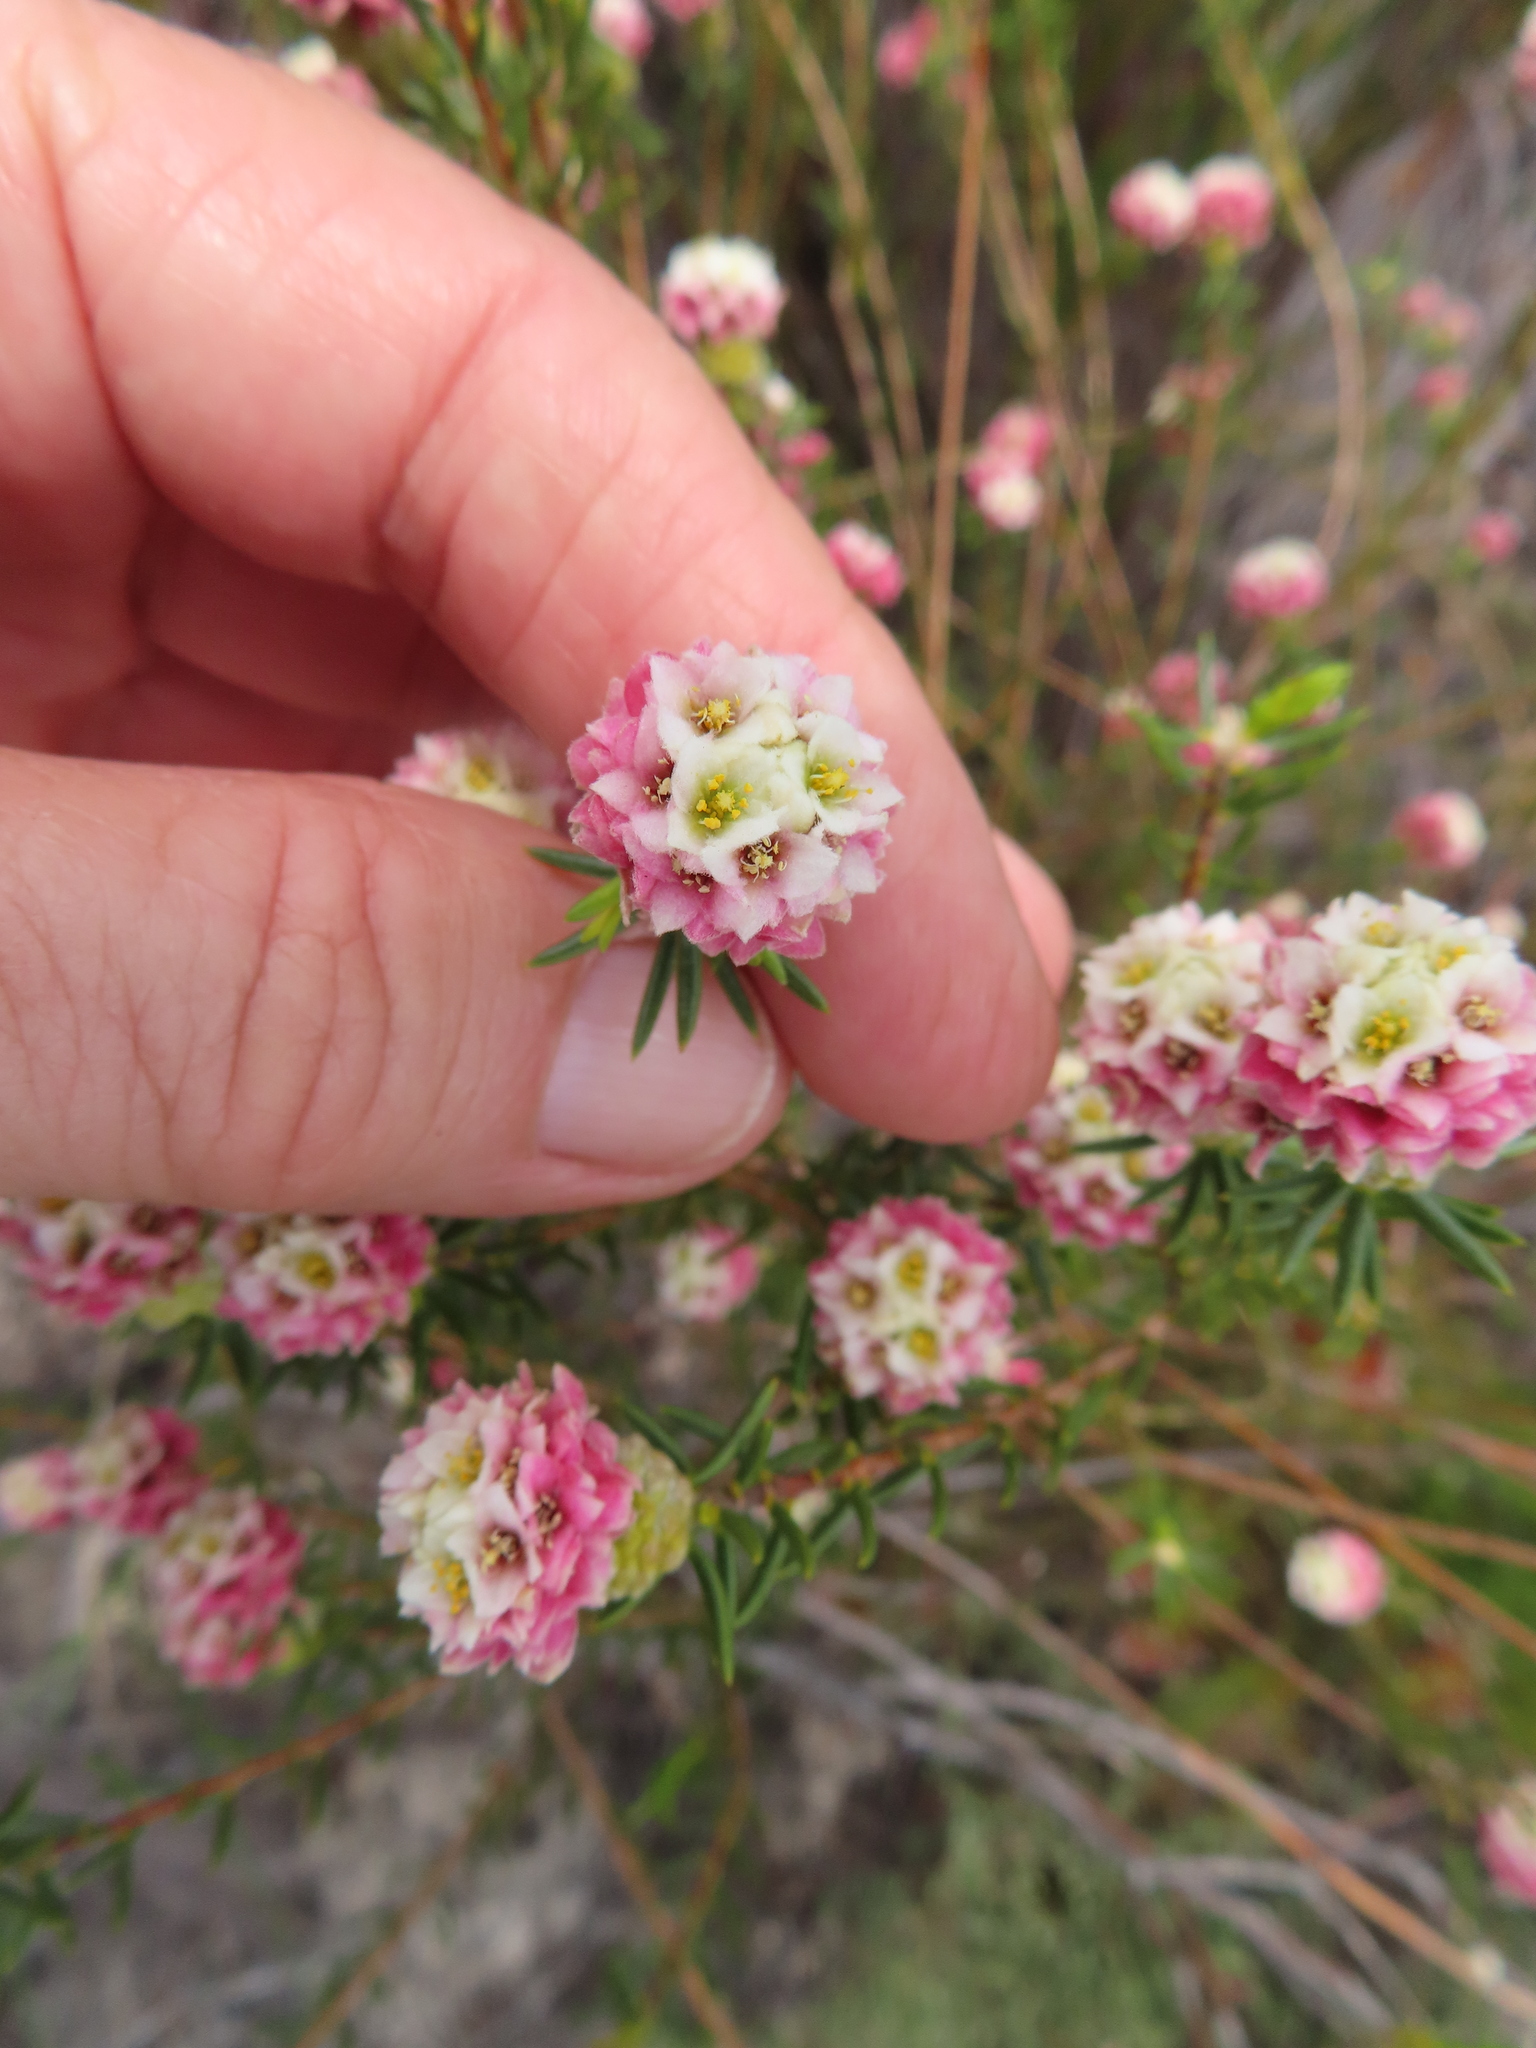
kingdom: Plantae
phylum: Tracheophyta
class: Magnoliopsida
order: Malvales
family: Thymelaeaceae
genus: Lachnaea
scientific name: Lachnaea densiflora
